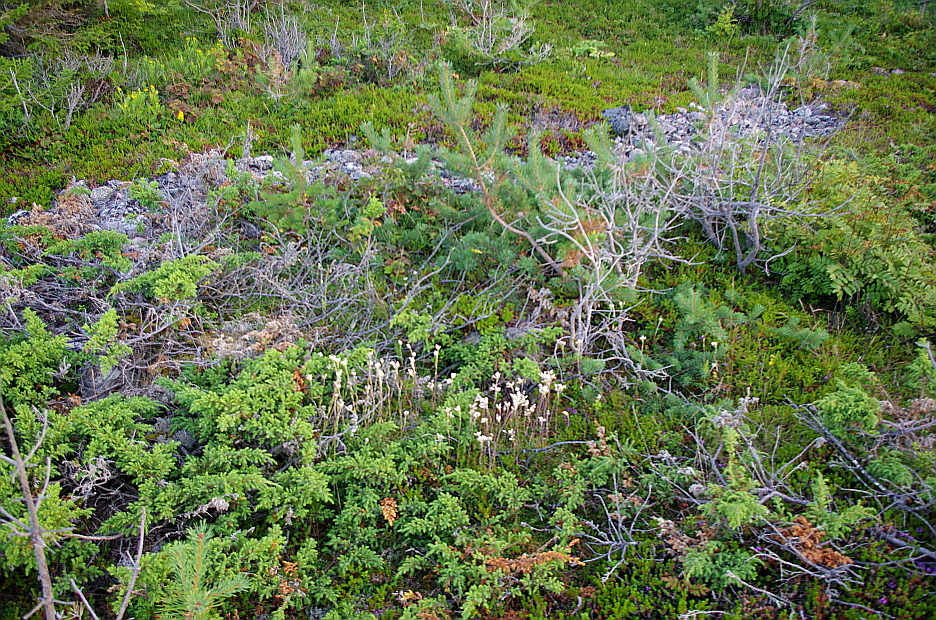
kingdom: Plantae
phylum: Tracheophyta
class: Magnoliopsida
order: Asterales
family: Asteraceae
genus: Antennaria
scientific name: Antennaria dioica
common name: Mountain everlasting
